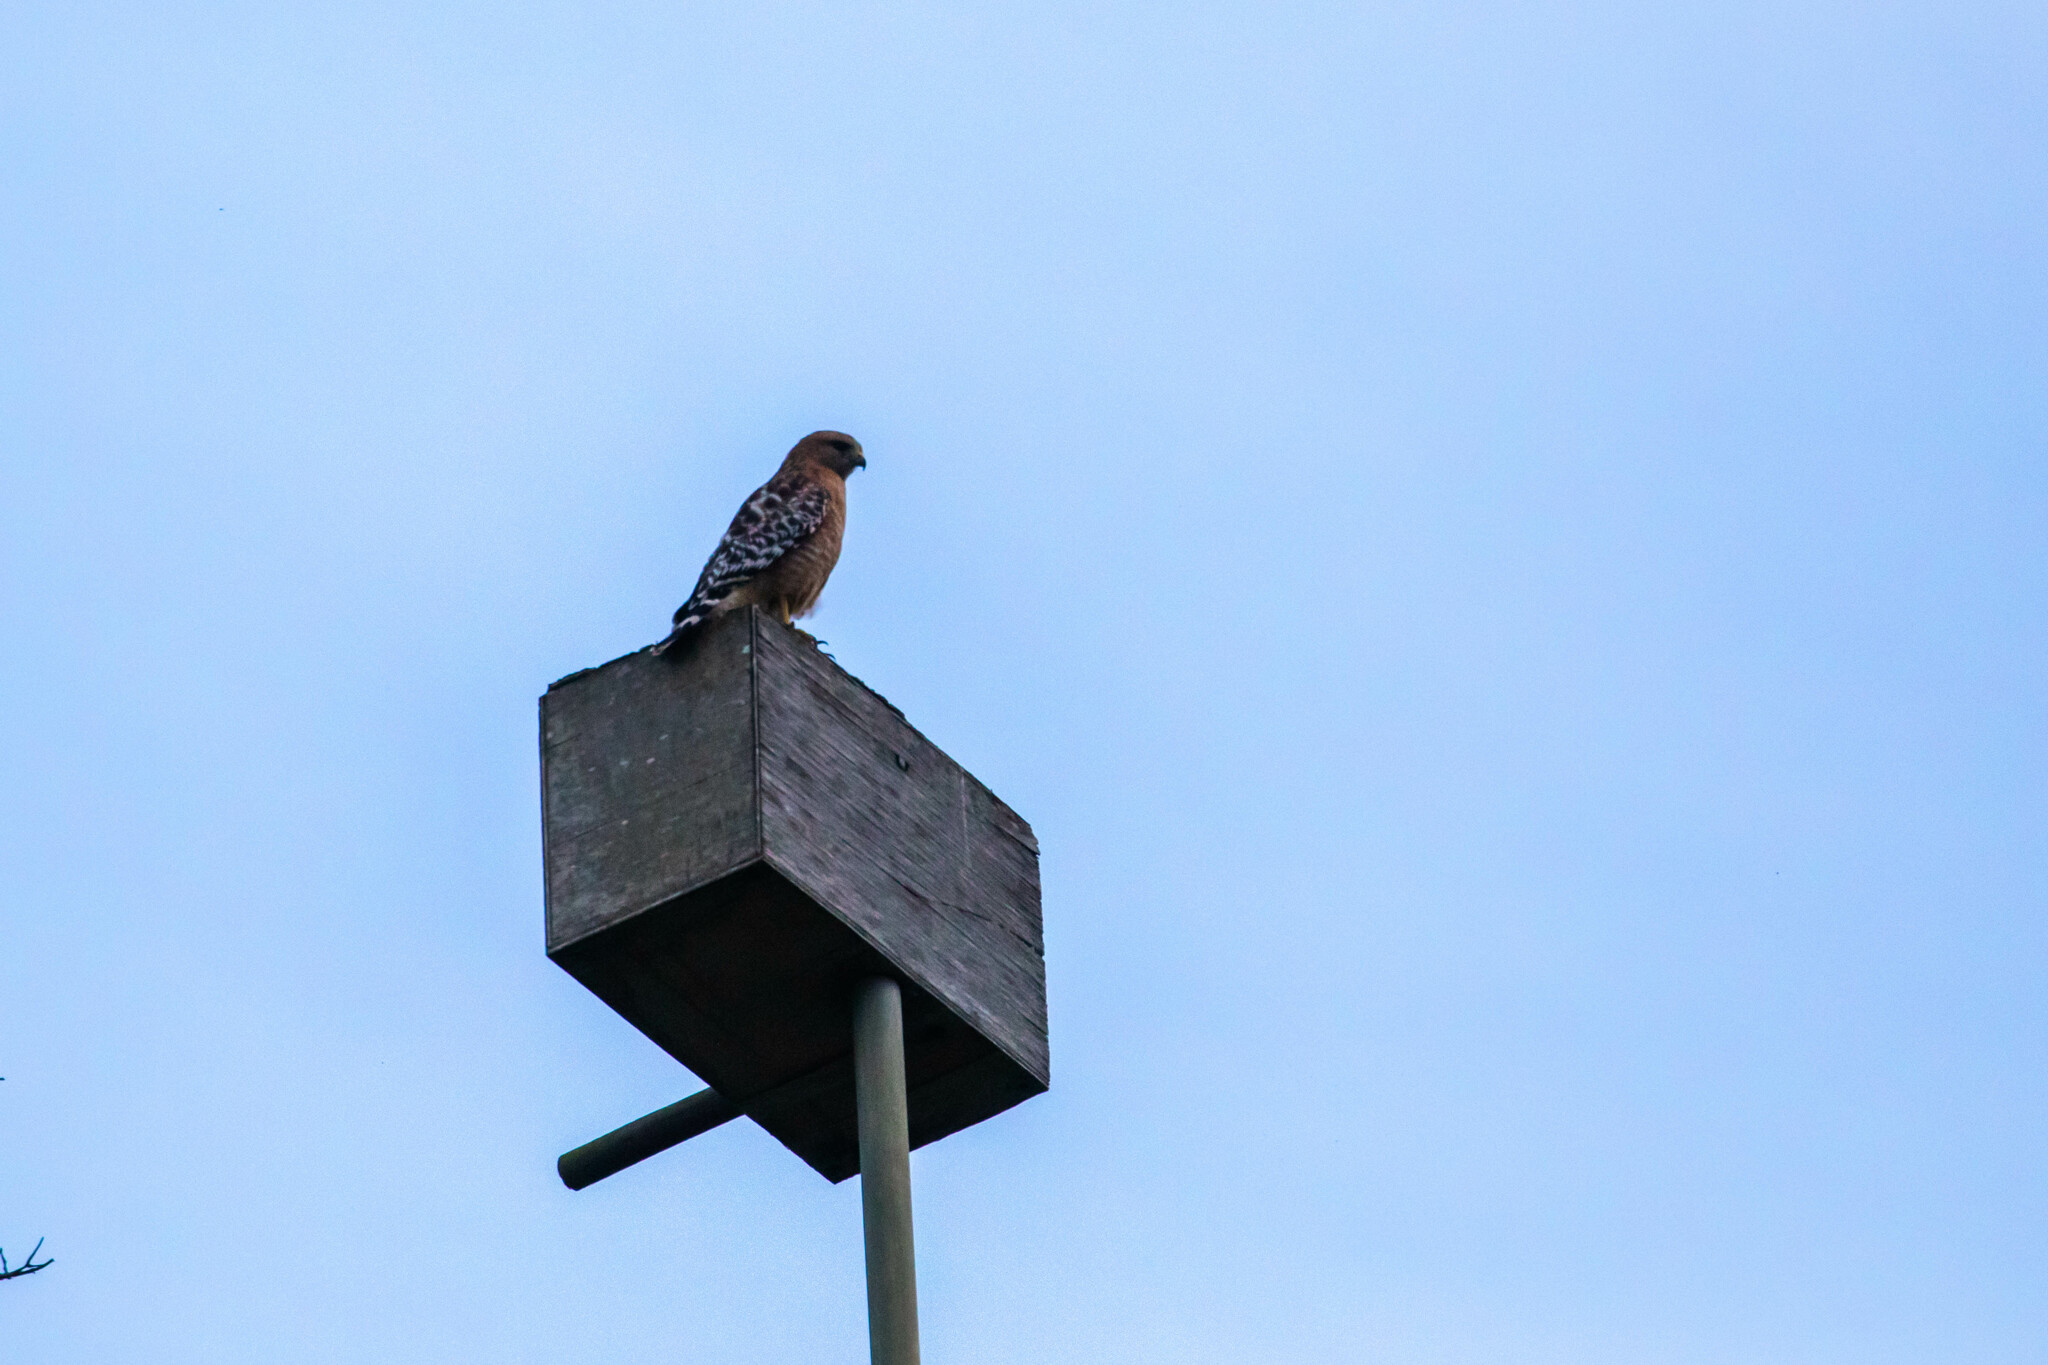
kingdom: Animalia
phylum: Chordata
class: Aves
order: Accipitriformes
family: Accipitridae
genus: Buteo
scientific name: Buteo lineatus
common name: Red-shouldered hawk
